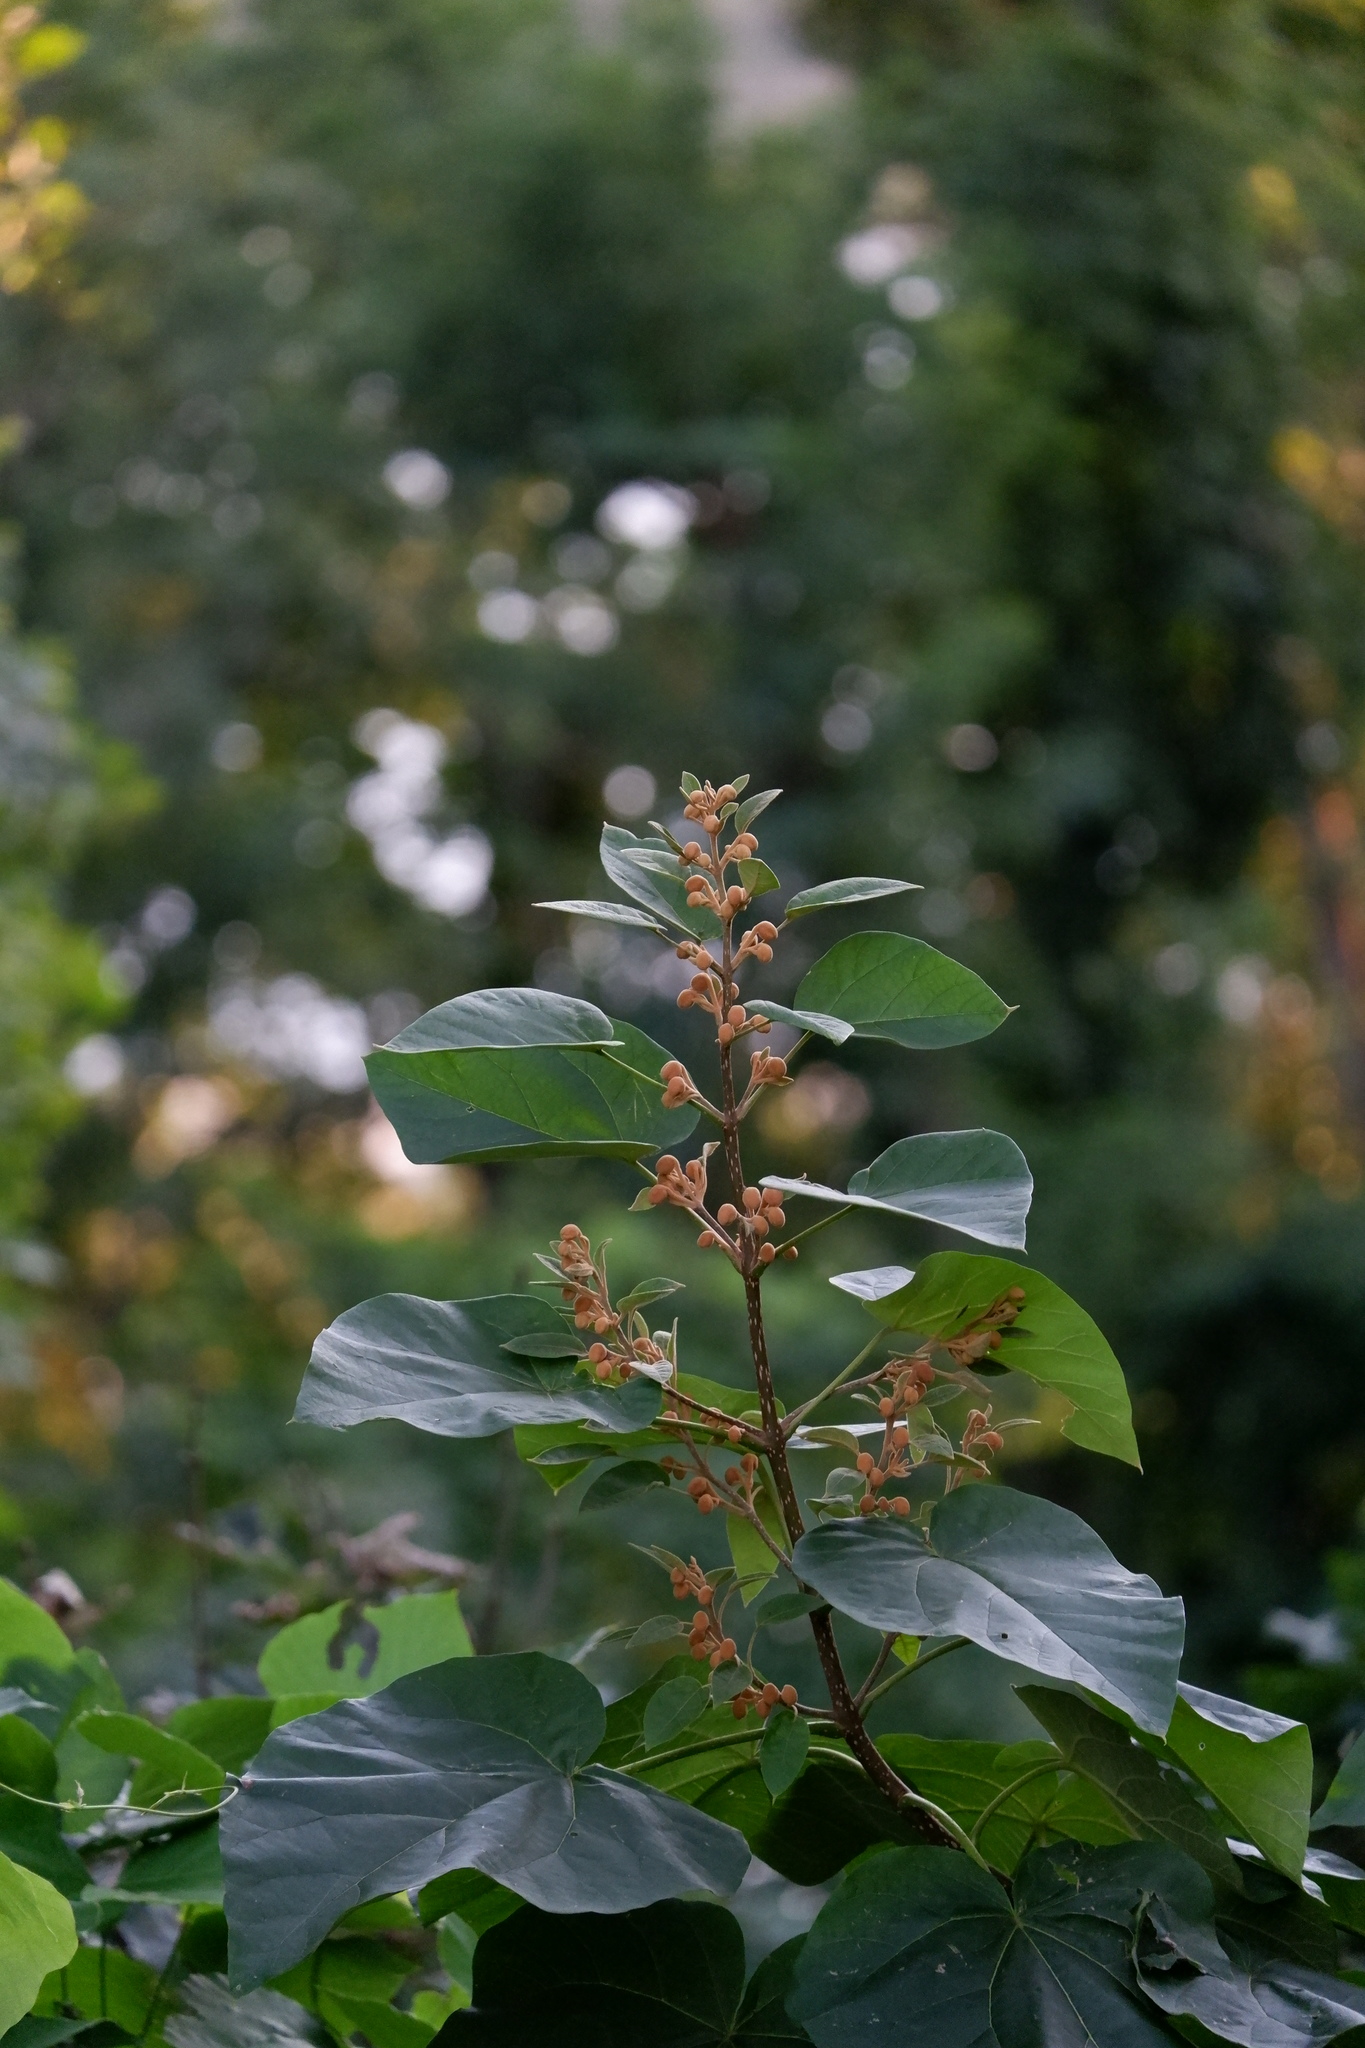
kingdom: Plantae
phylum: Tracheophyta
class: Magnoliopsida
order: Lamiales
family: Paulowniaceae
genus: Paulownia
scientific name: Paulownia tomentosa
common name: Foxglove-tree
